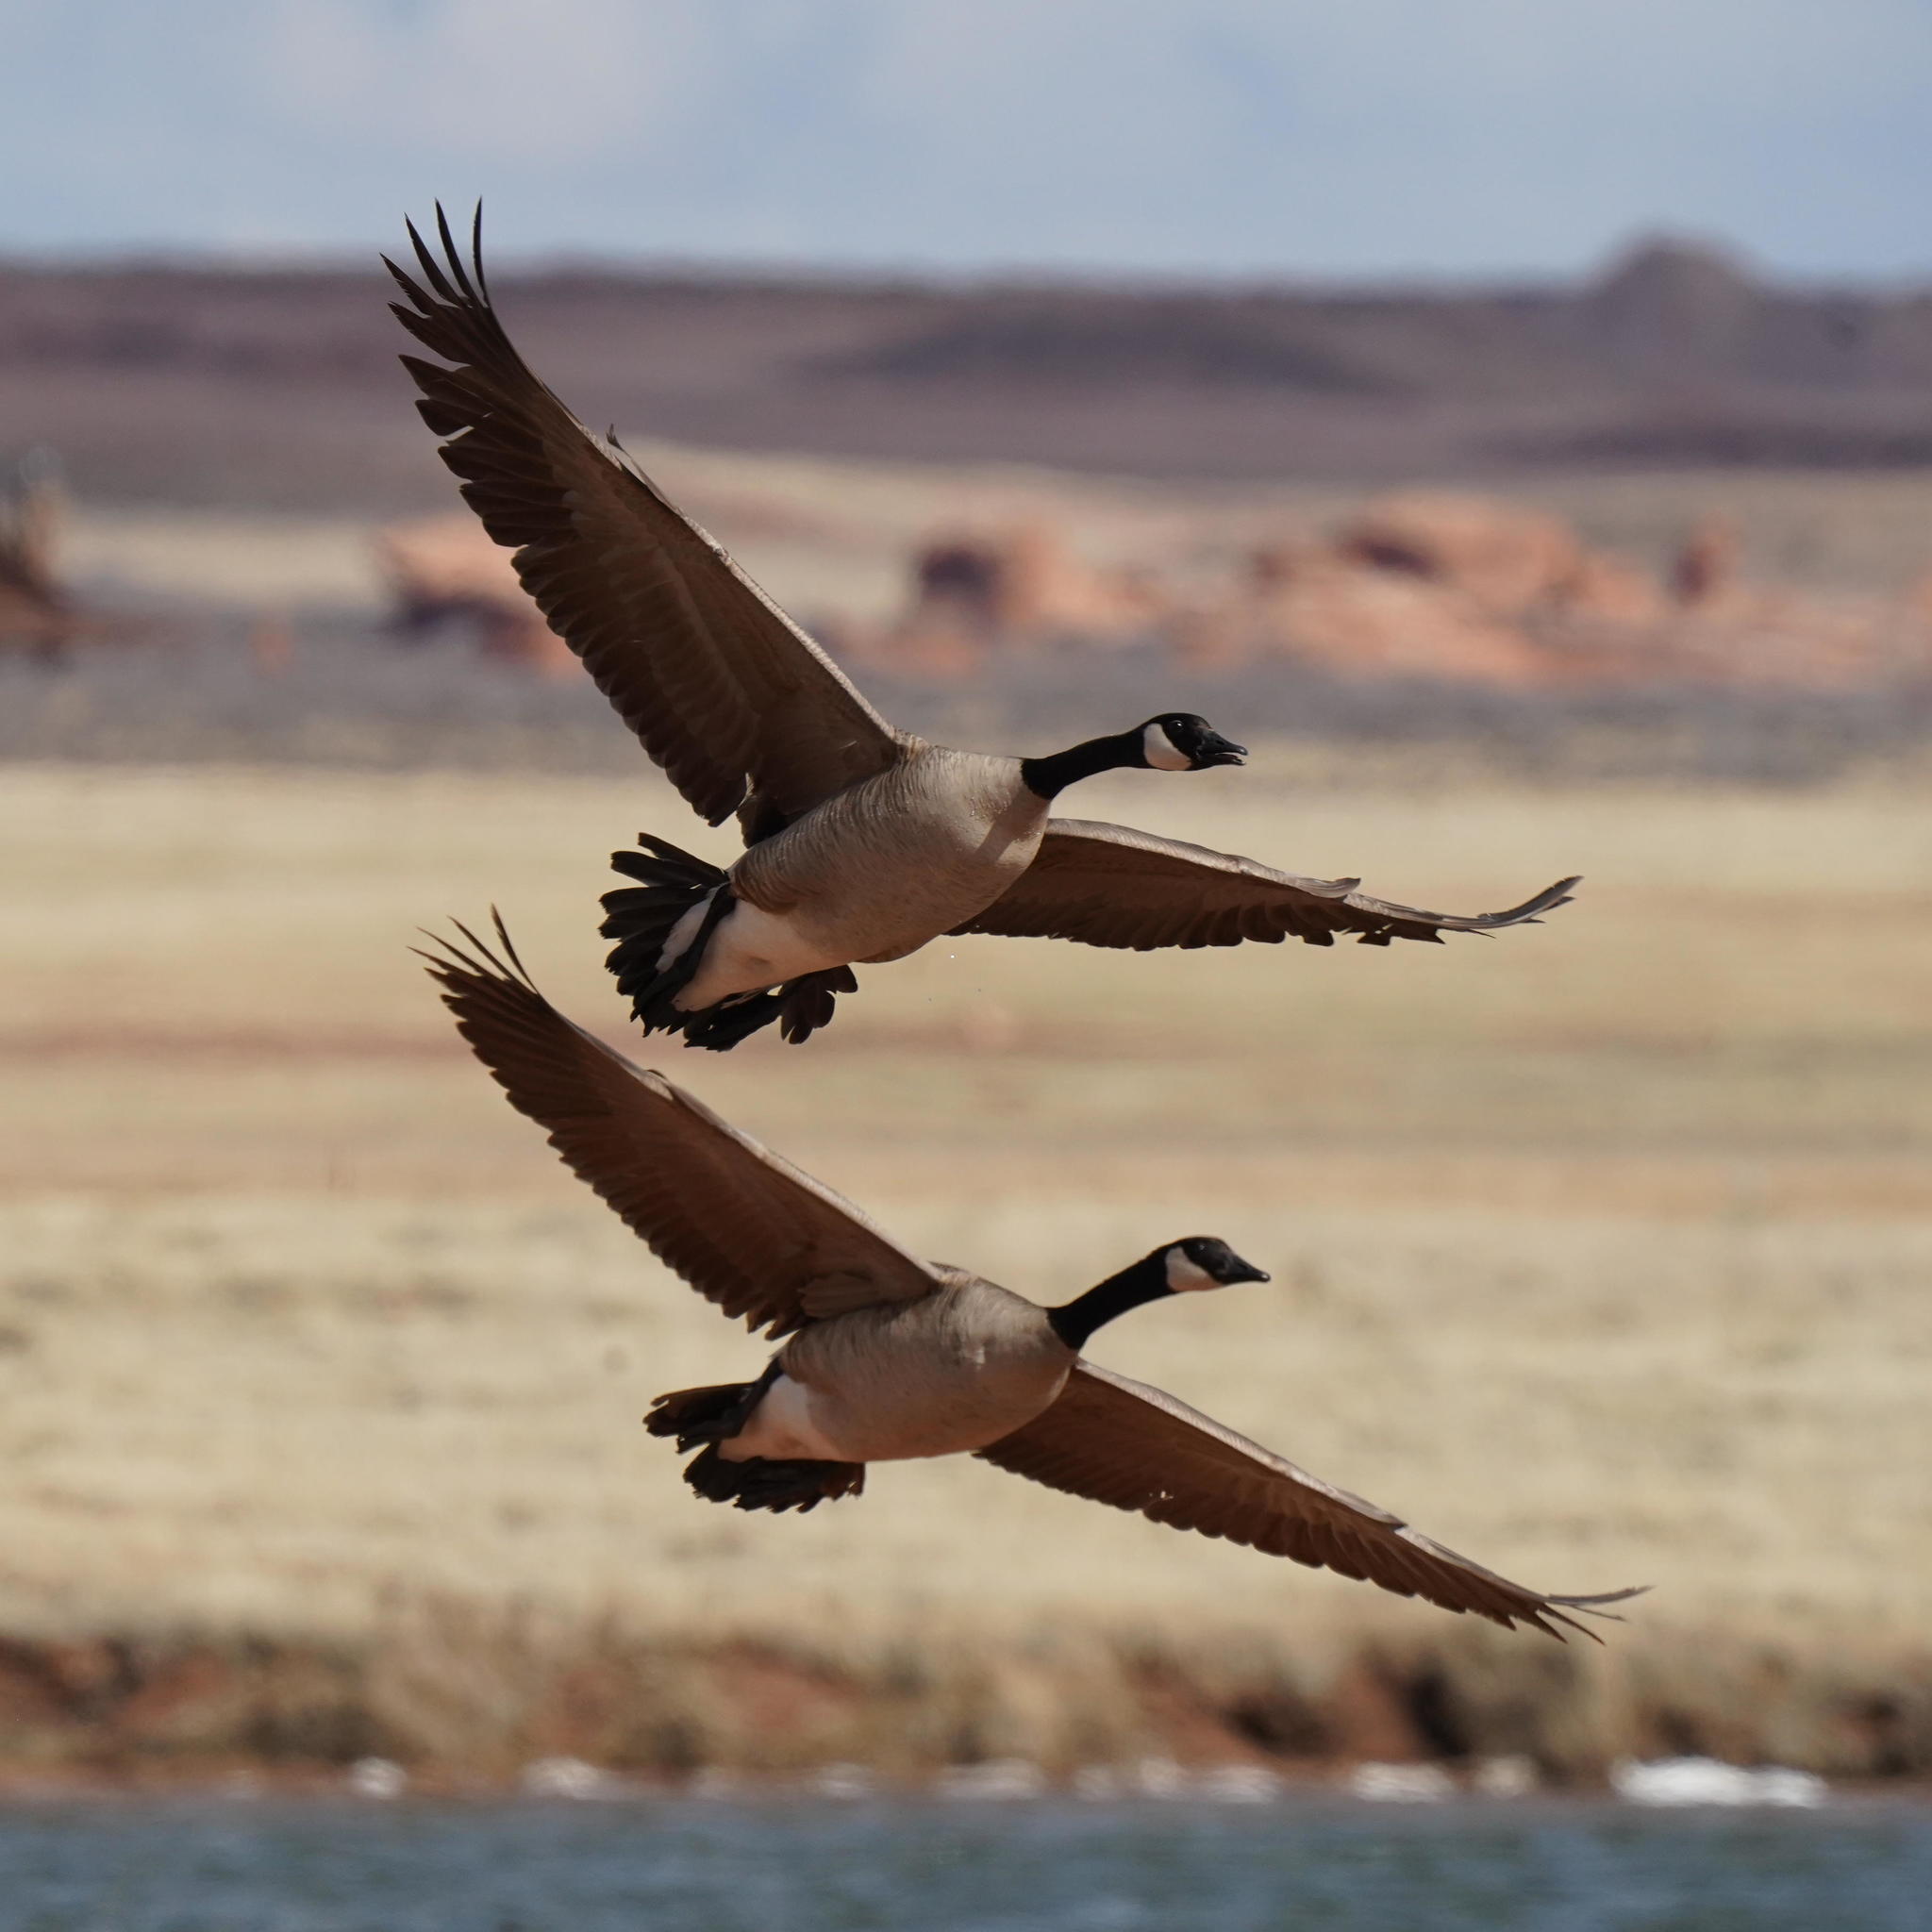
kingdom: Animalia
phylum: Chordata
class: Aves
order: Anseriformes
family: Anatidae
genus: Branta
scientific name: Branta canadensis
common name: Canada goose
